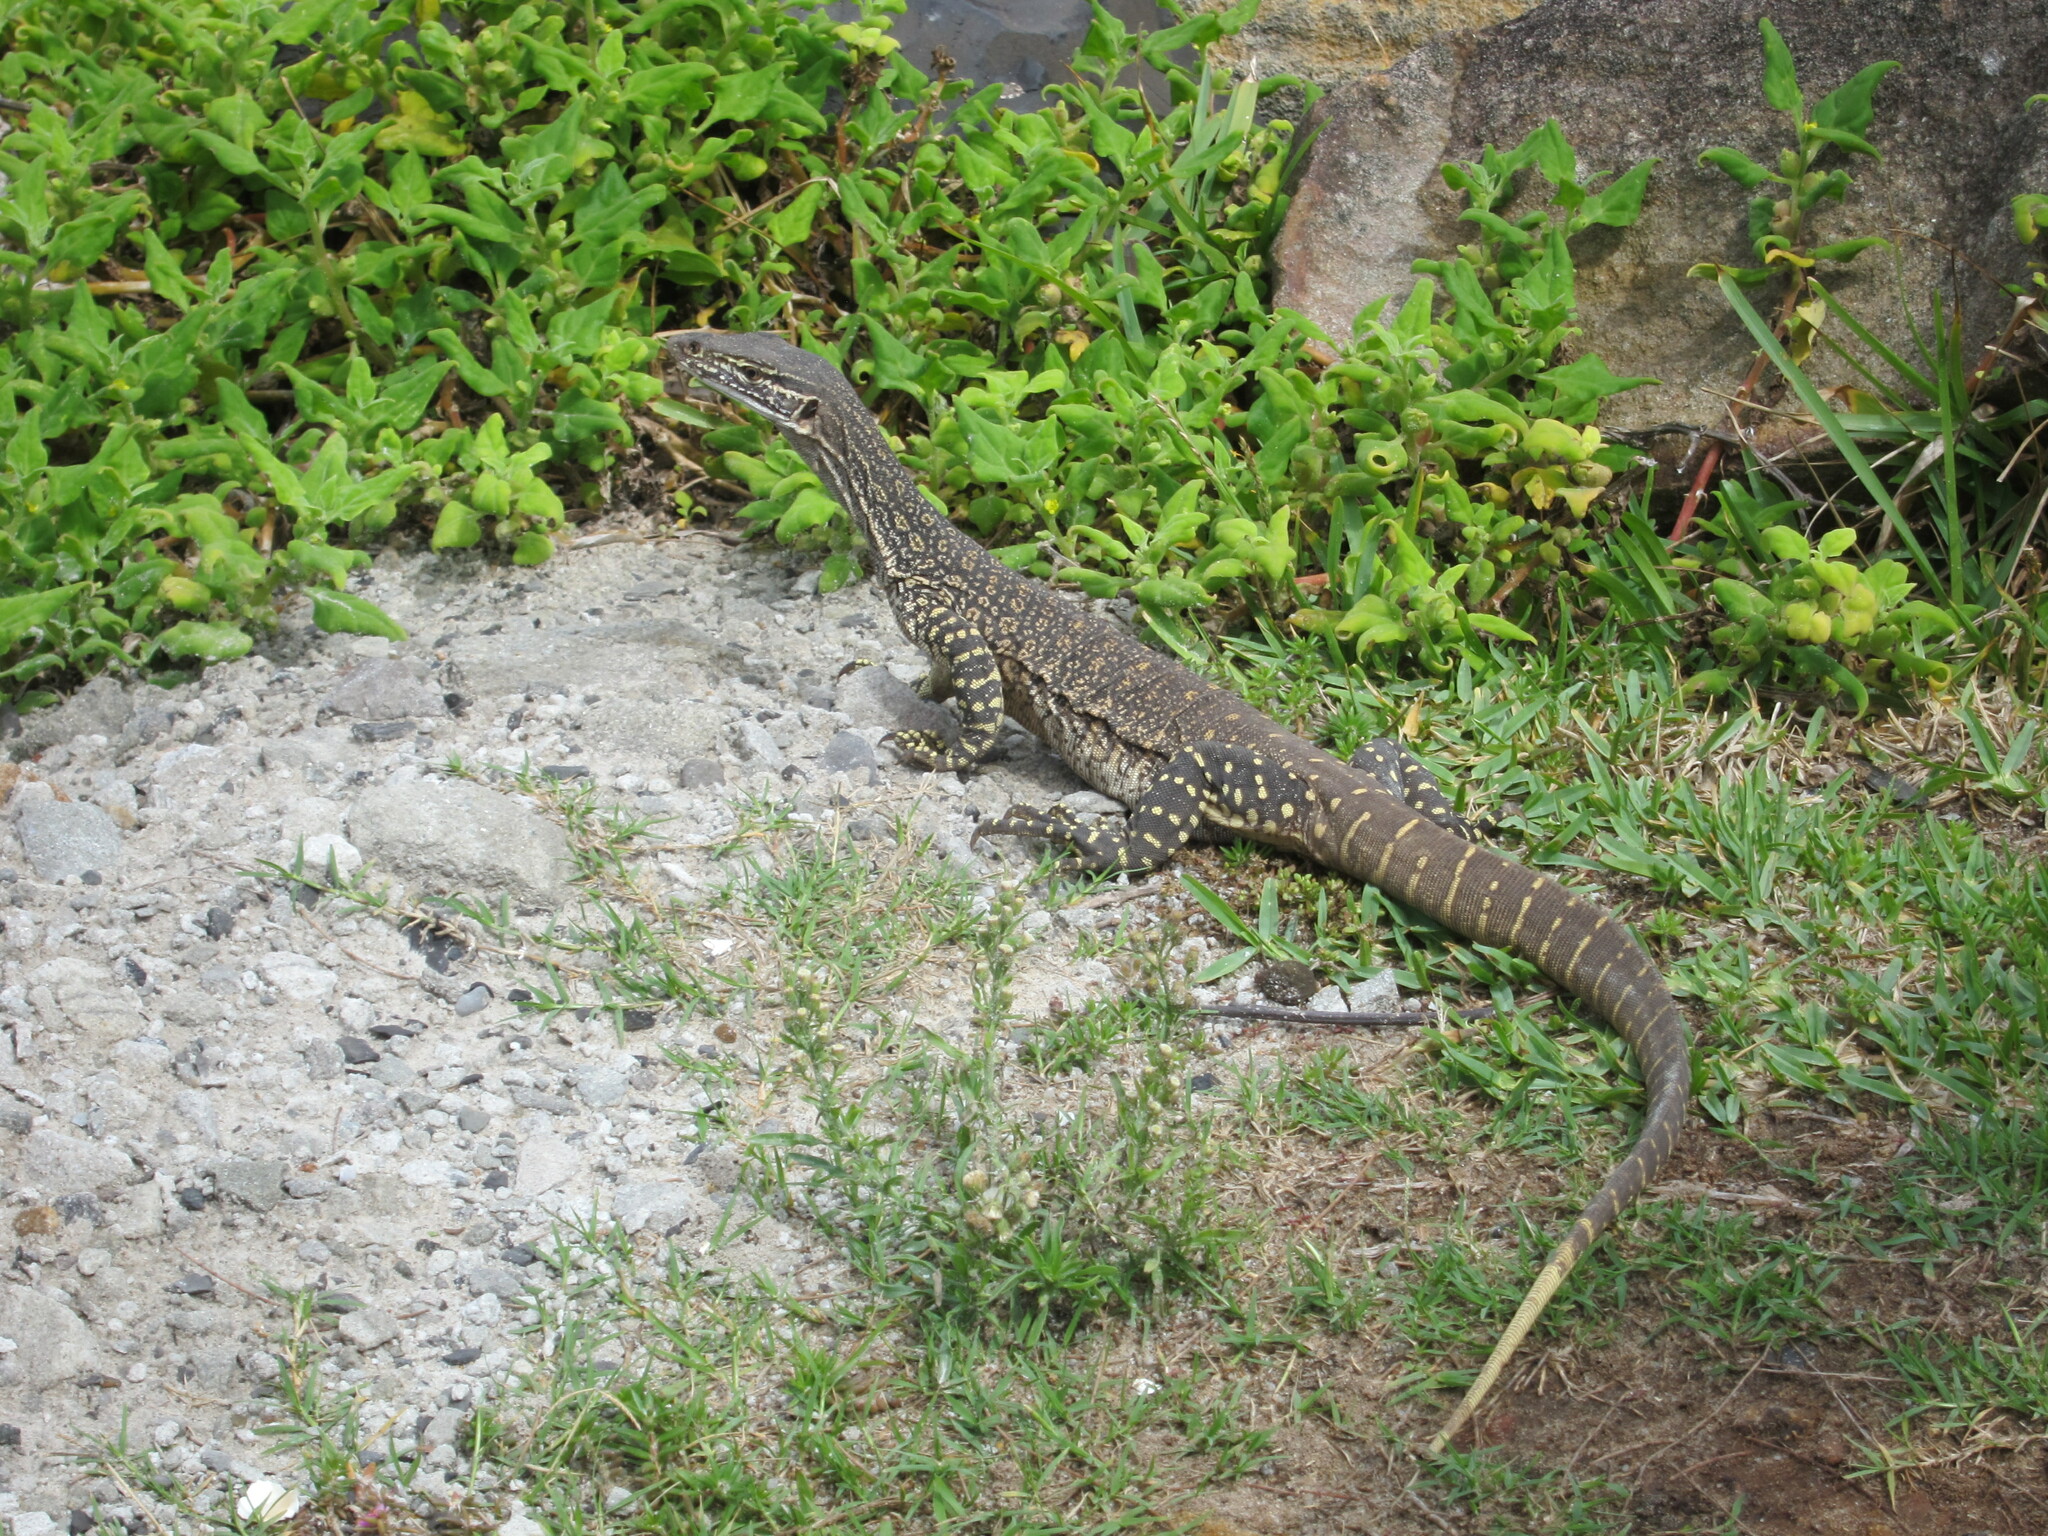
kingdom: Animalia
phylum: Chordata
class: Squamata
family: Varanidae
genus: Varanus
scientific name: Varanus gouldii
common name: Gould's goanna
